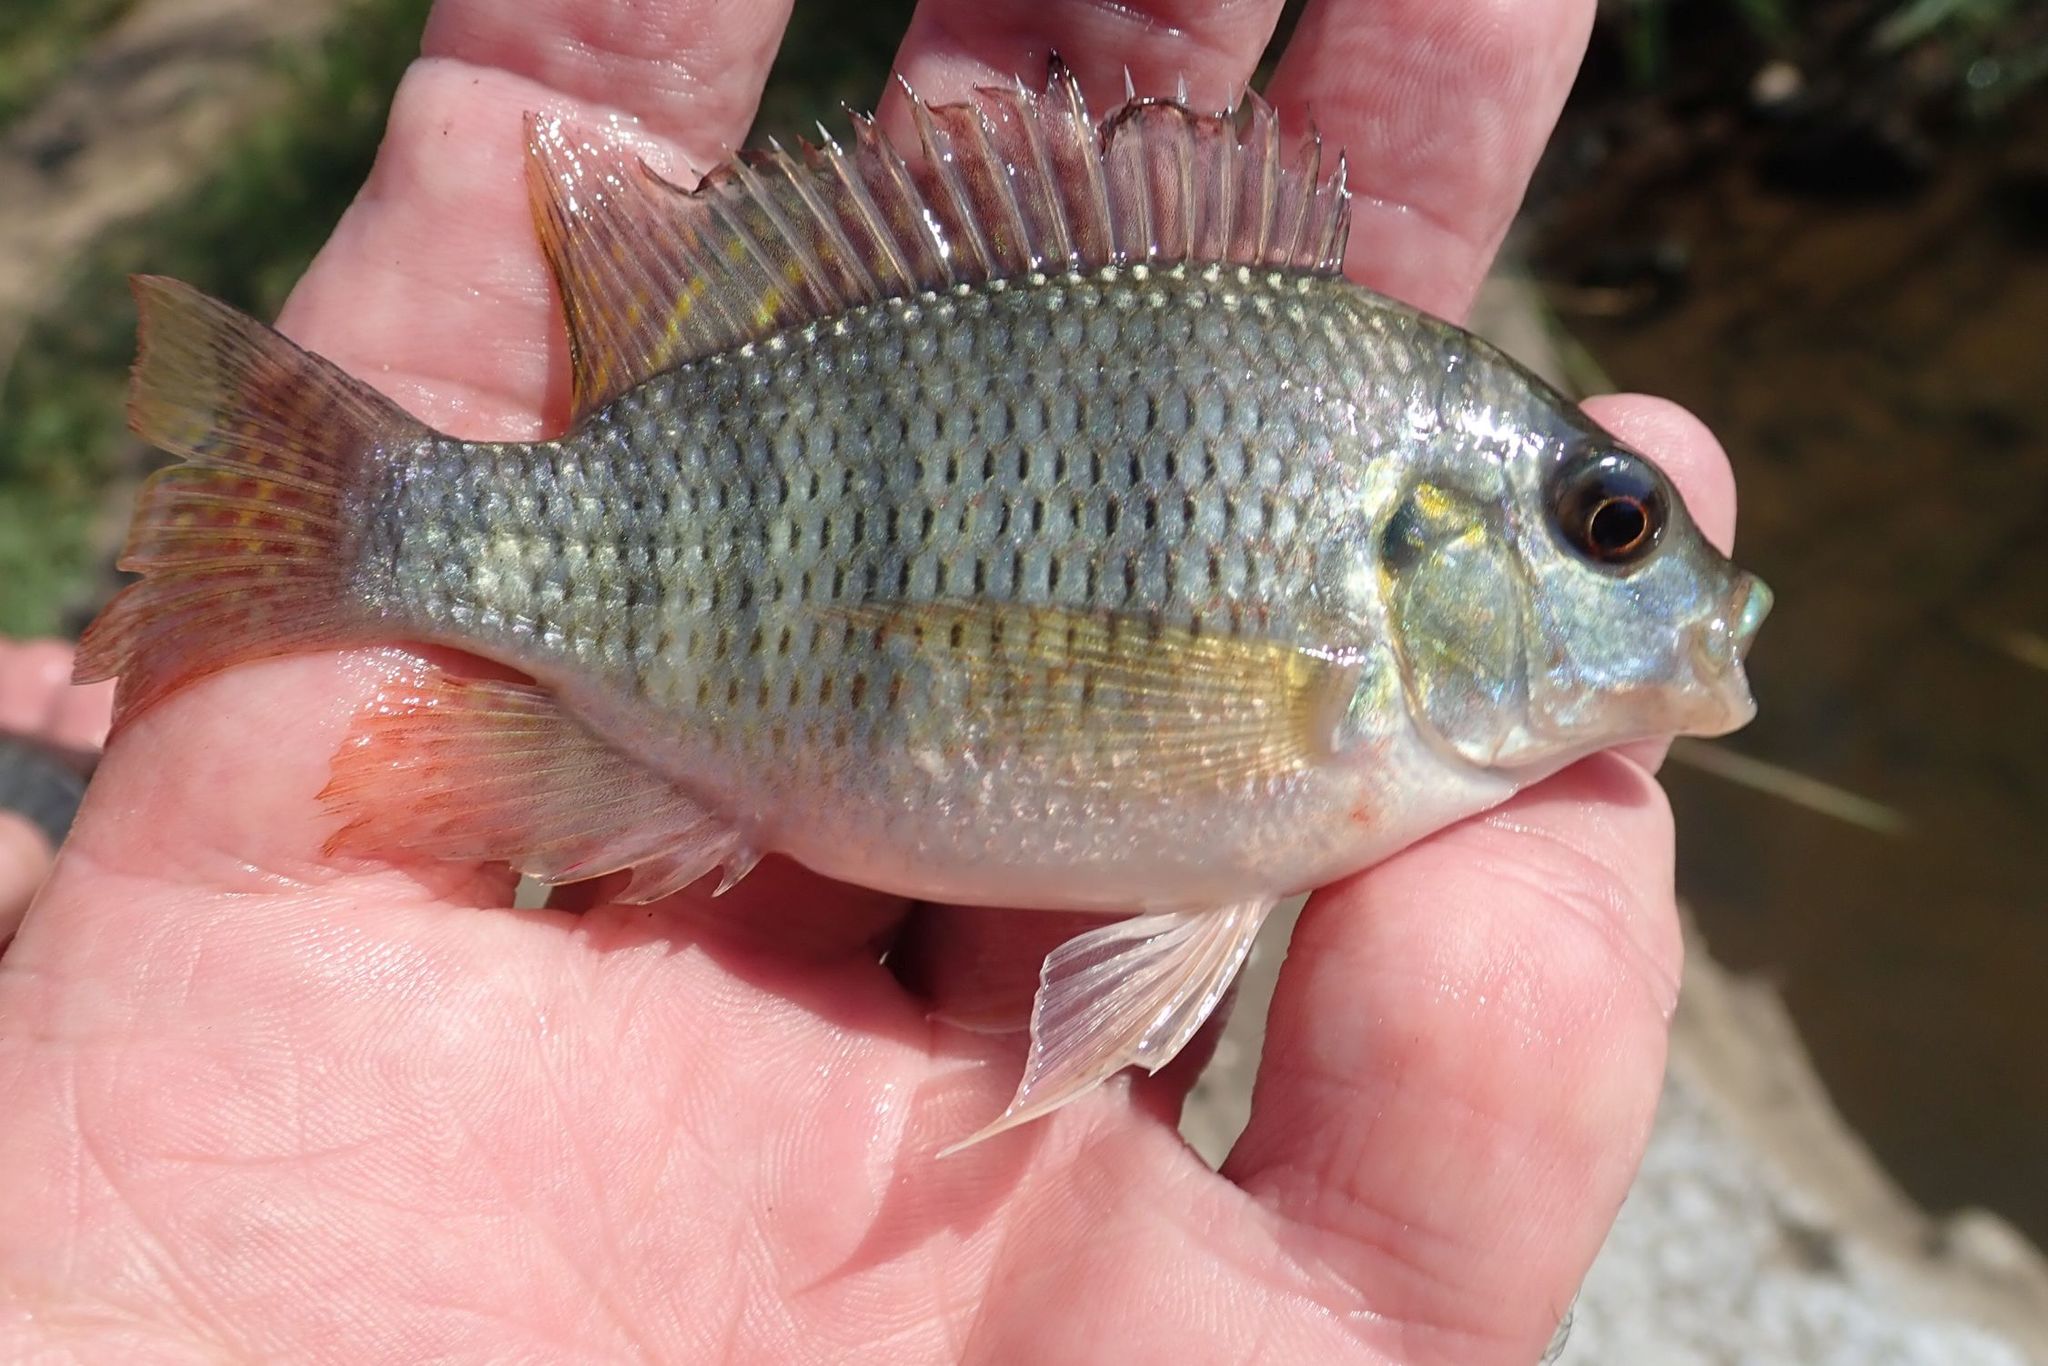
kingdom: Animalia
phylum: Chordata
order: Perciformes
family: Cichlidae
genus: Coptodon
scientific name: Coptodon rendalli
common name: Redbreast tilapia
